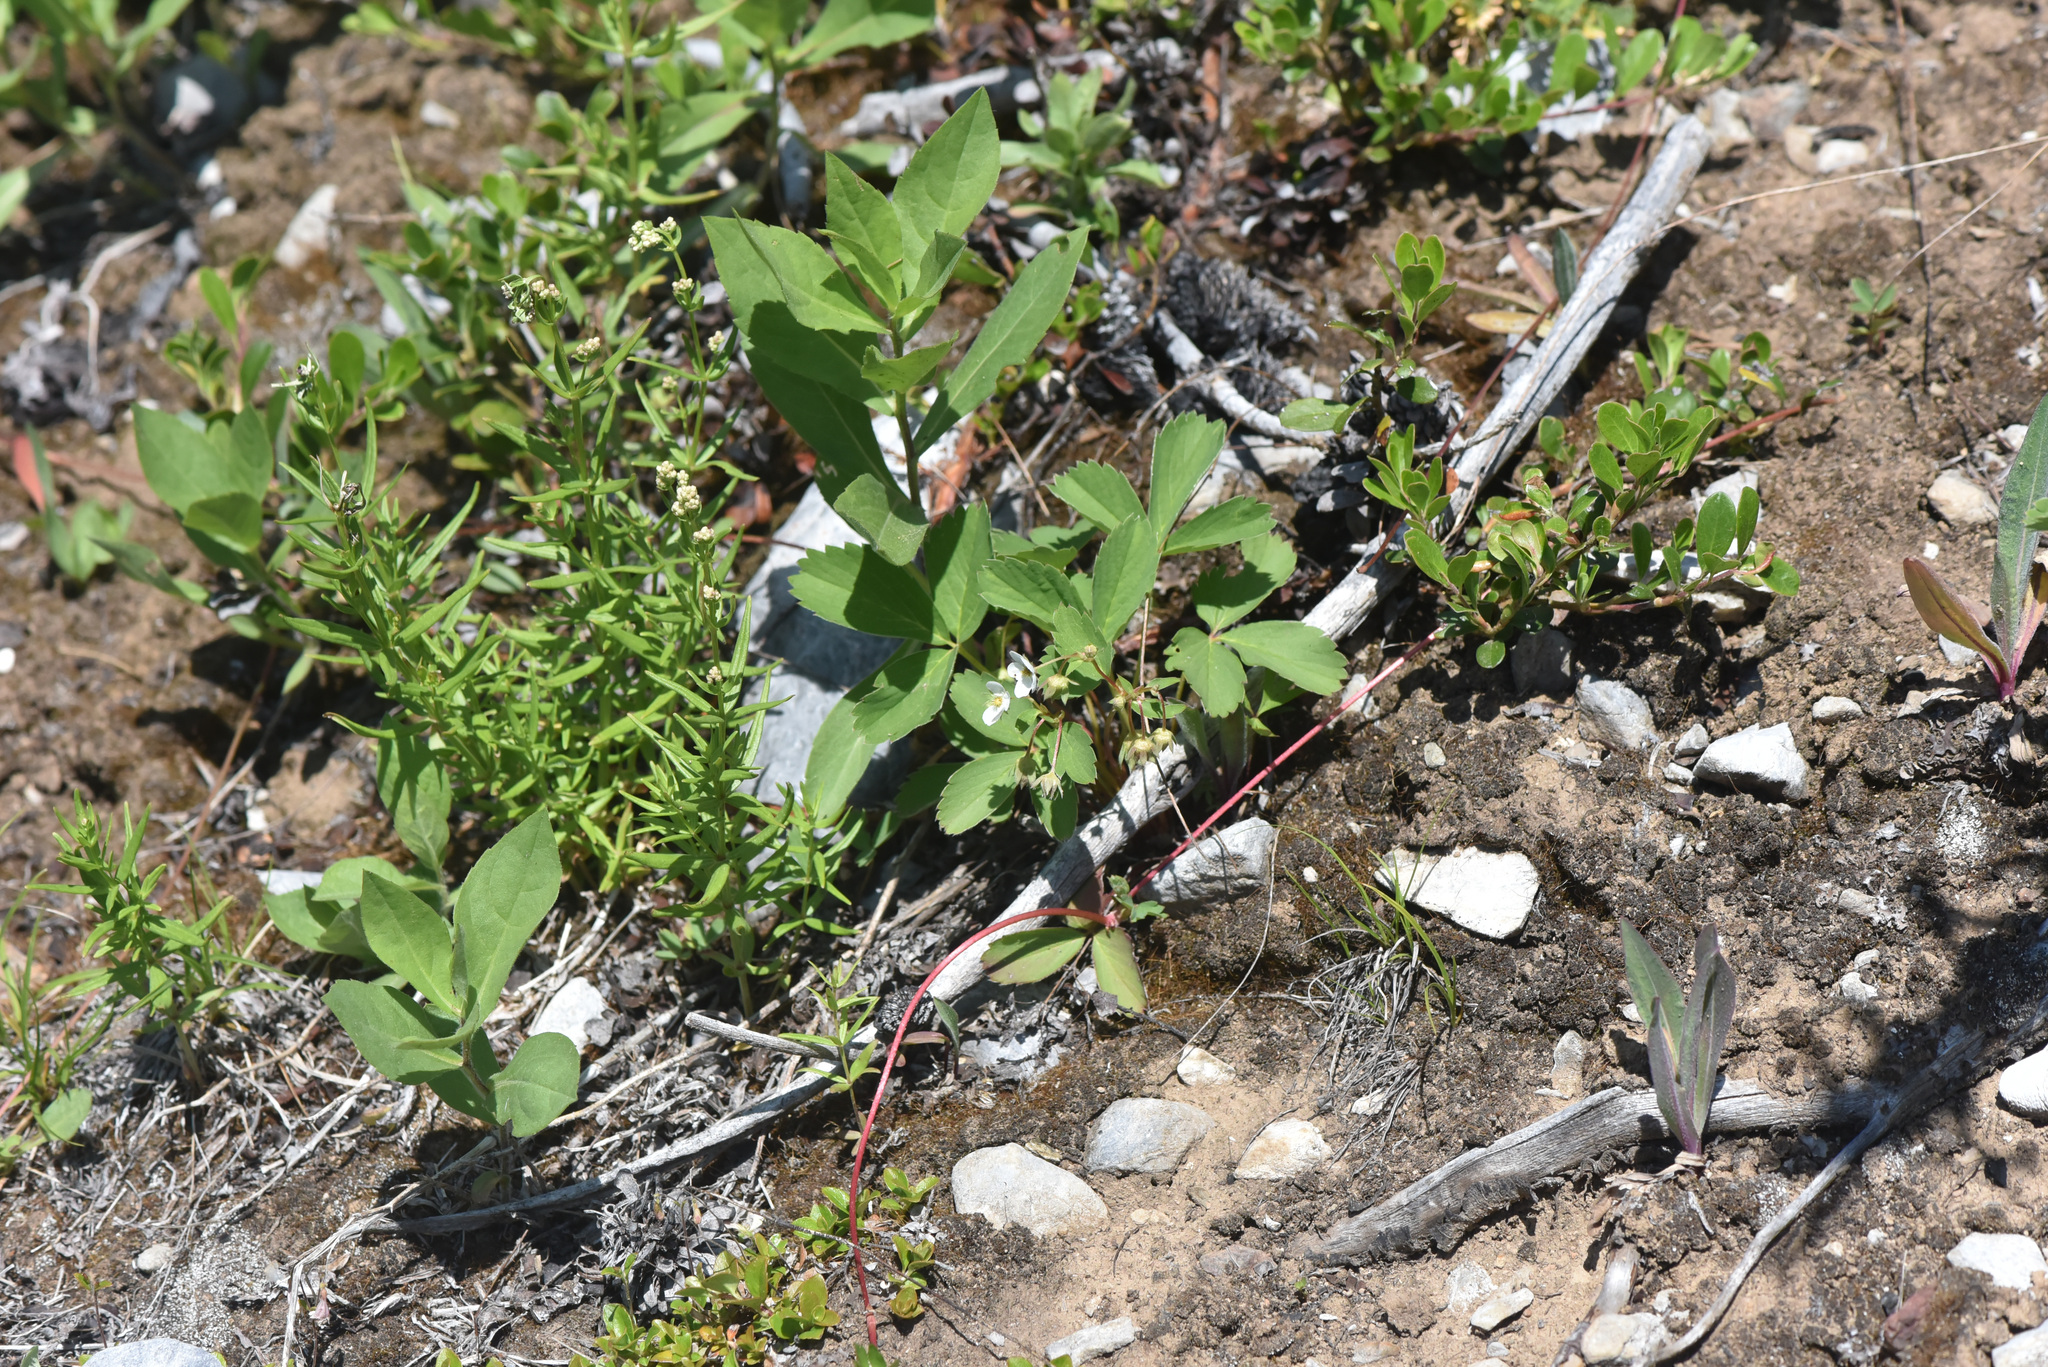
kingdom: Plantae
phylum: Tracheophyta
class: Magnoliopsida
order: Rosales
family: Rosaceae
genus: Fragaria
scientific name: Fragaria virginiana
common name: Thickleaved wild strawberry
